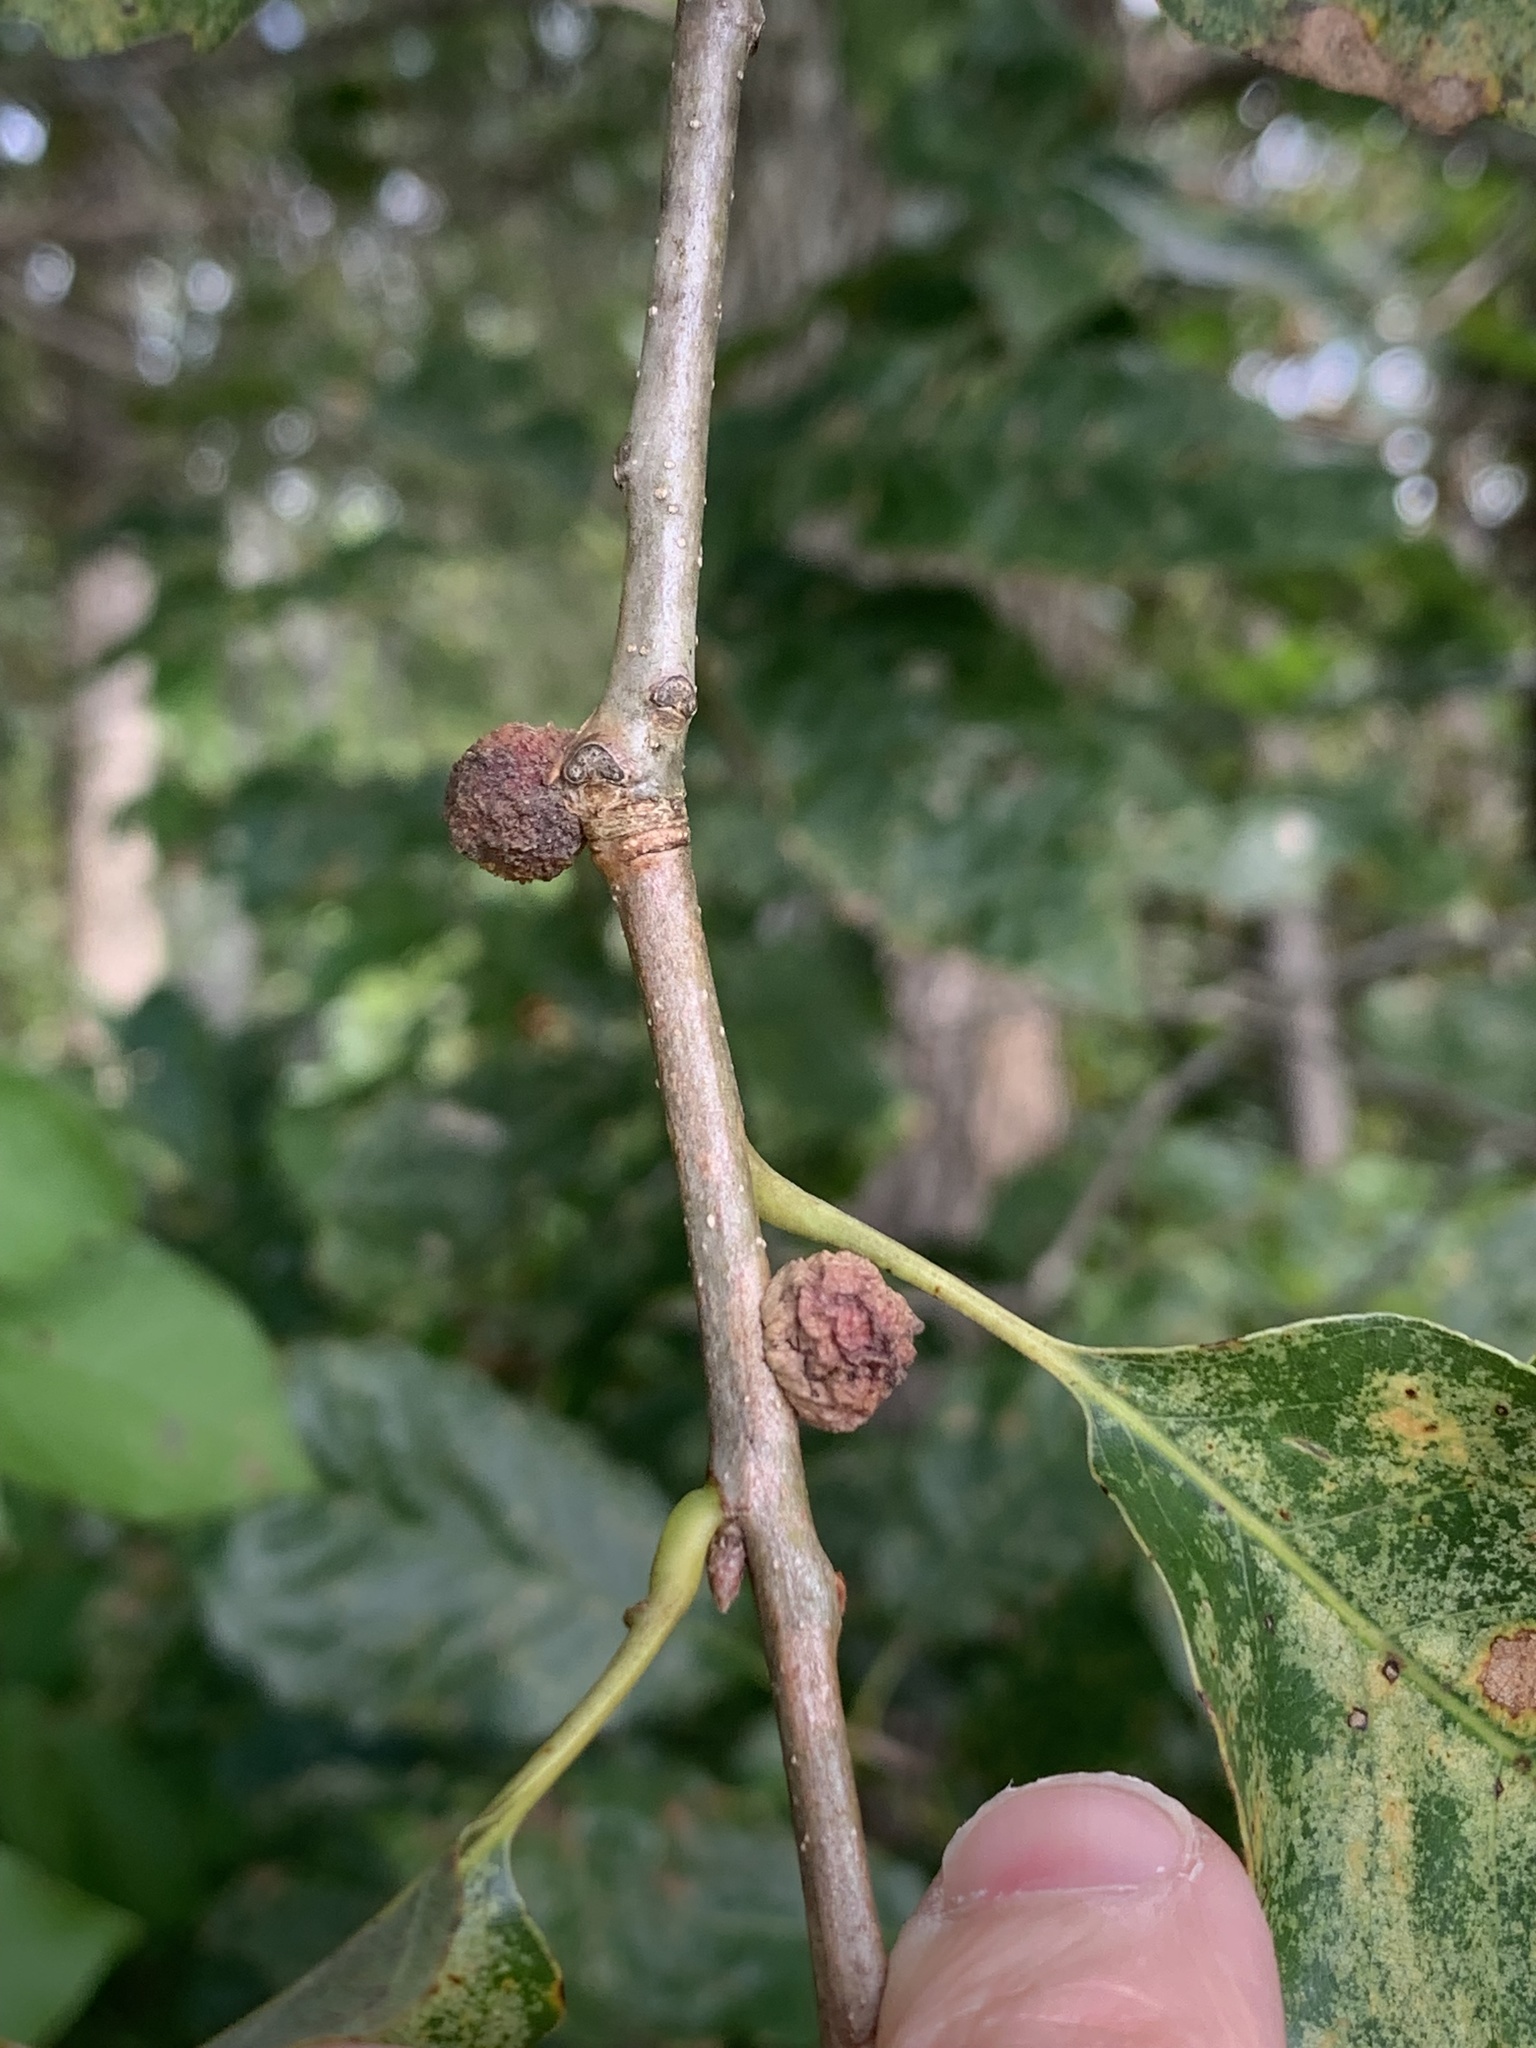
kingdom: Animalia
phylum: Arthropoda
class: Insecta
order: Hymenoptera
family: Cynipidae
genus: Disholcaspis
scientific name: Disholcaspis
